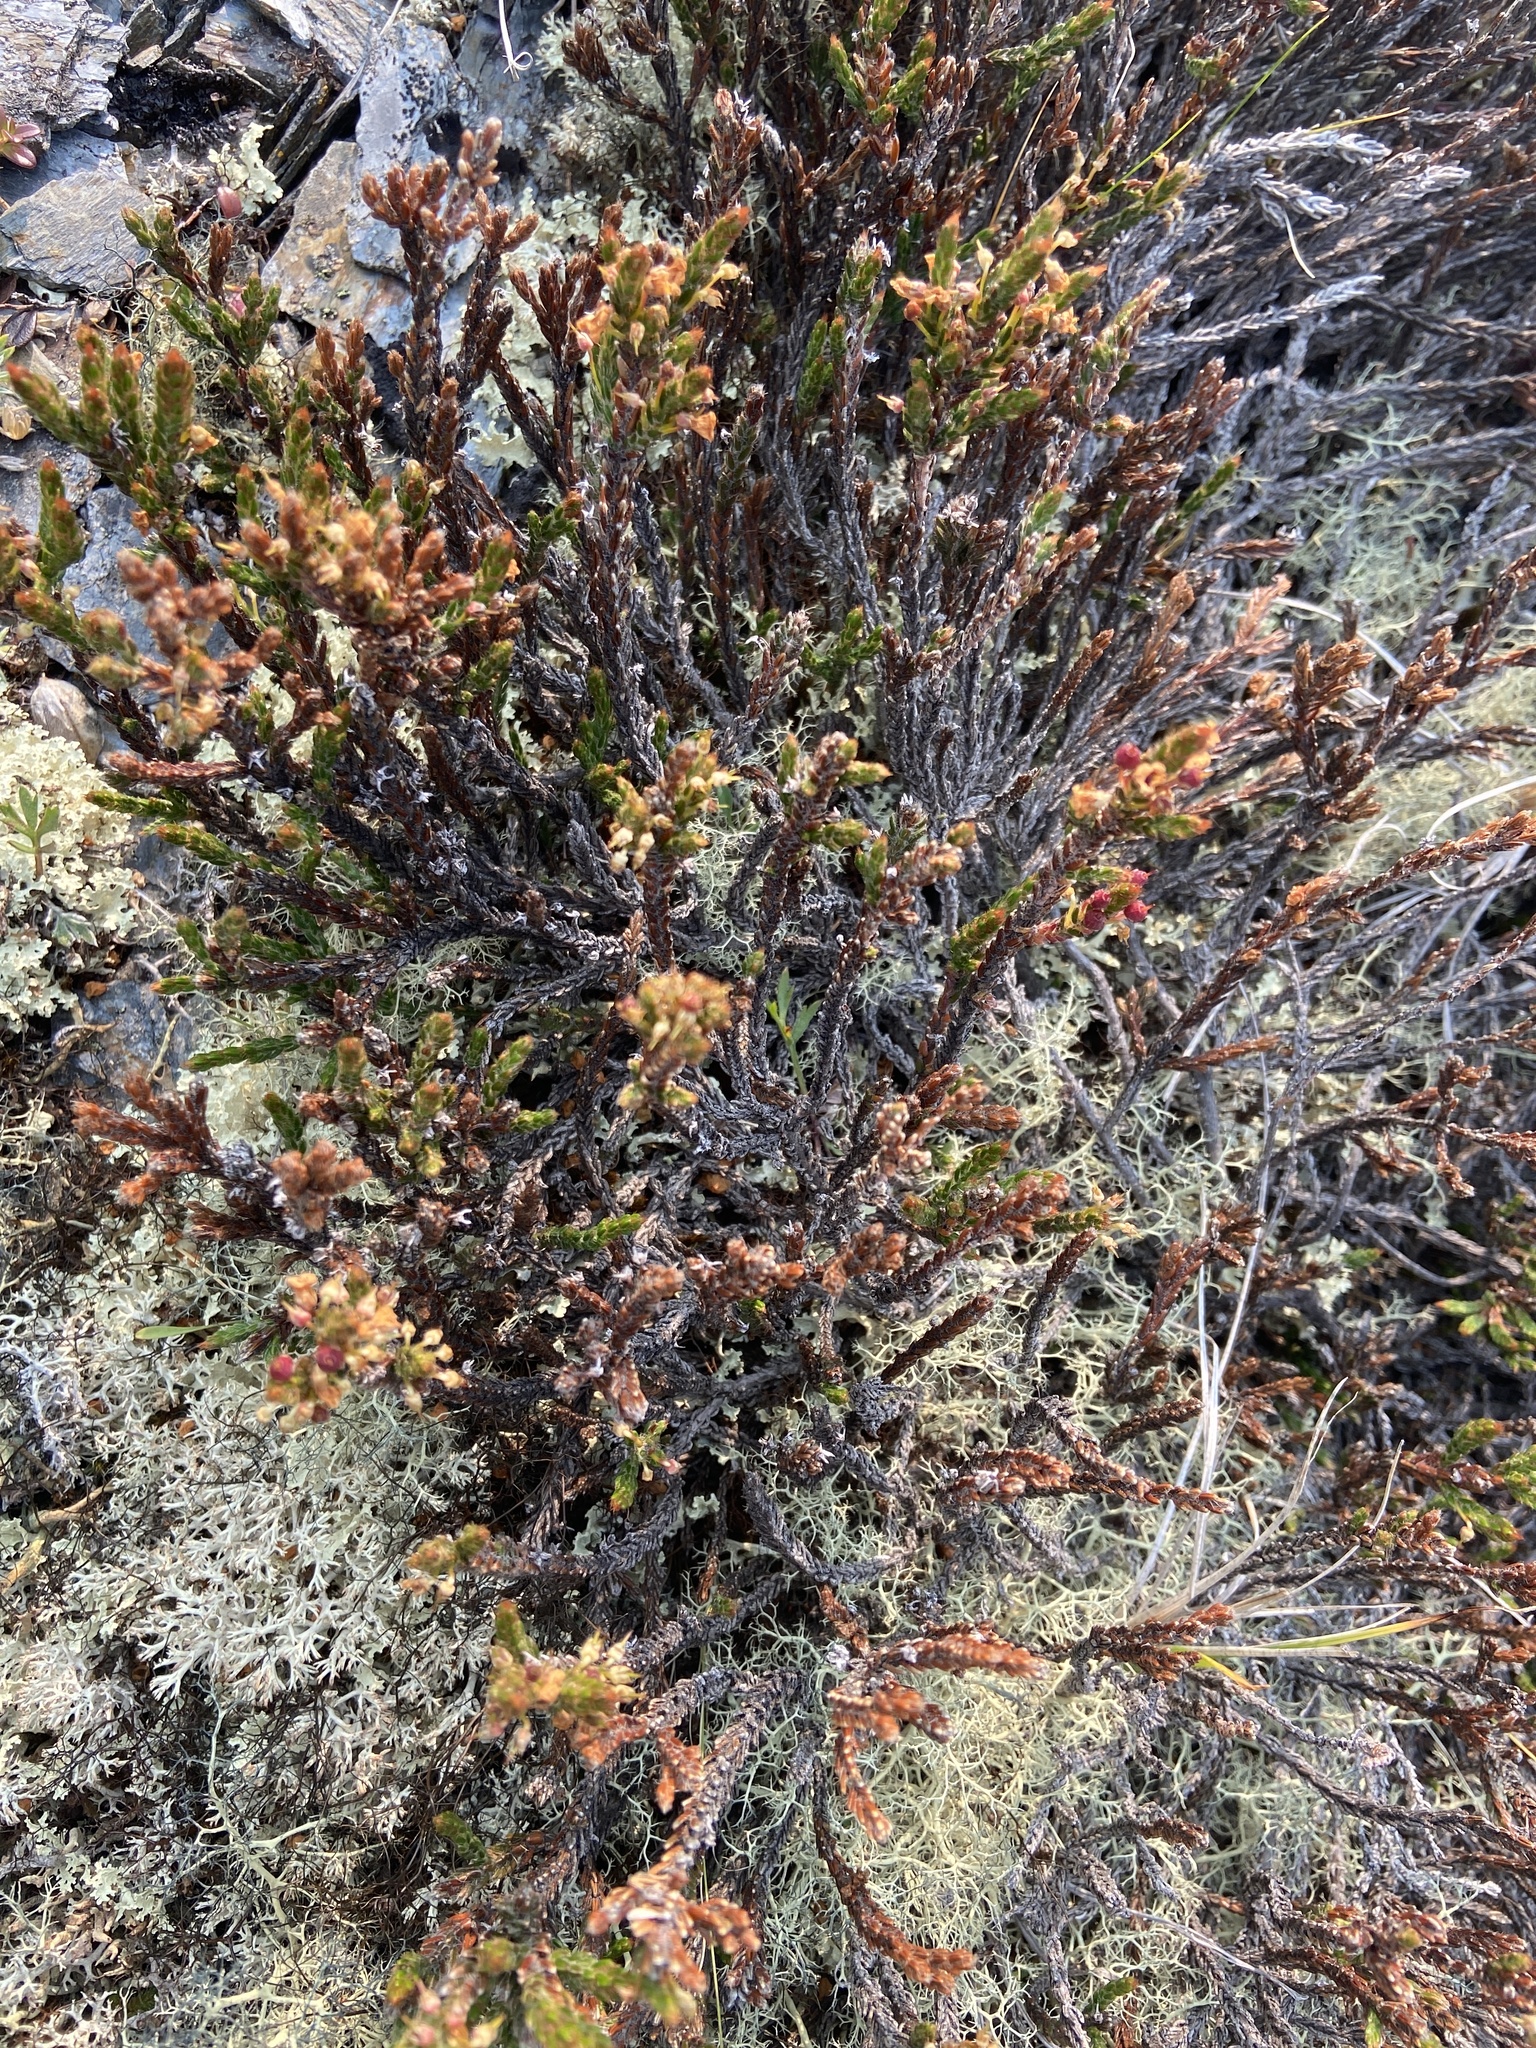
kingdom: Plantae
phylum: Tracheophyta
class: Magnoliopsida
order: Ericales
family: Ericaceae
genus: Cassiope
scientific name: Cassiope ericoides
